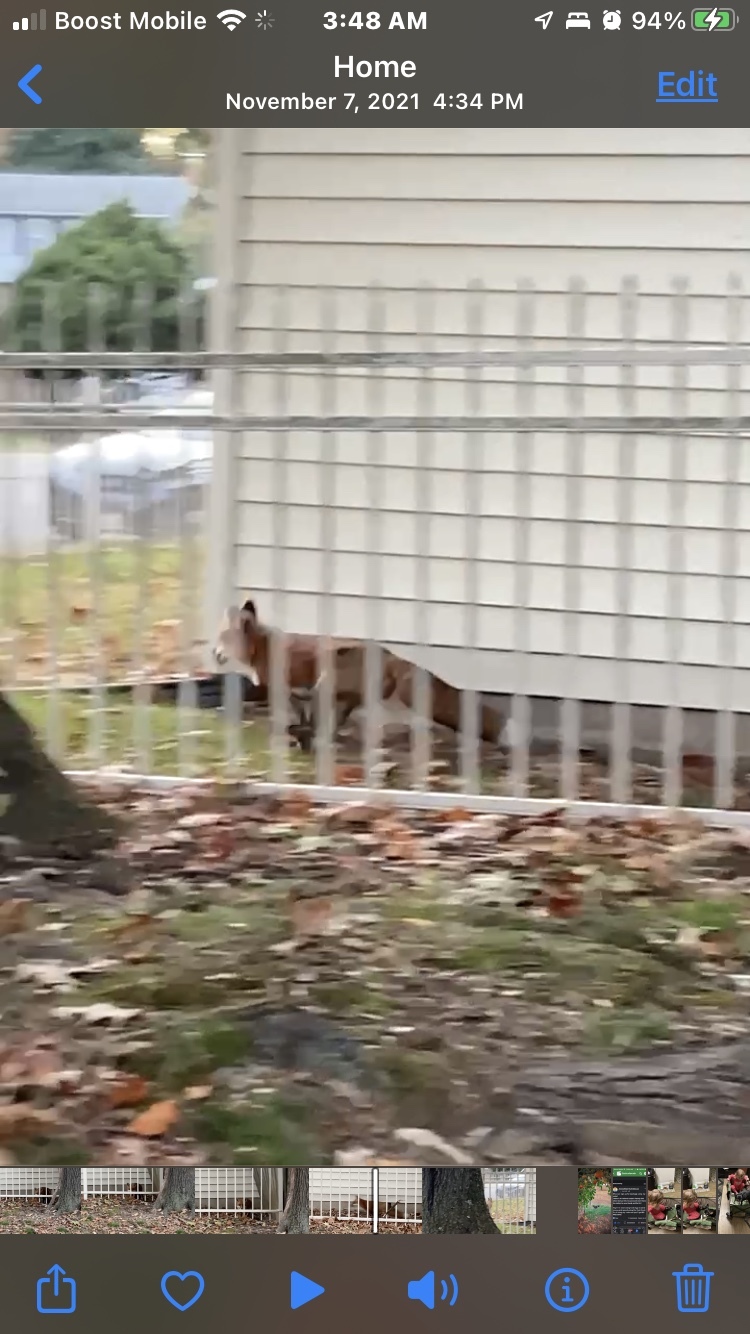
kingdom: Animalia
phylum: Chordata
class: Mammalia
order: Carnivora
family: Canidae
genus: Vulpes
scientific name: Vulpes vulpes
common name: Red fox
